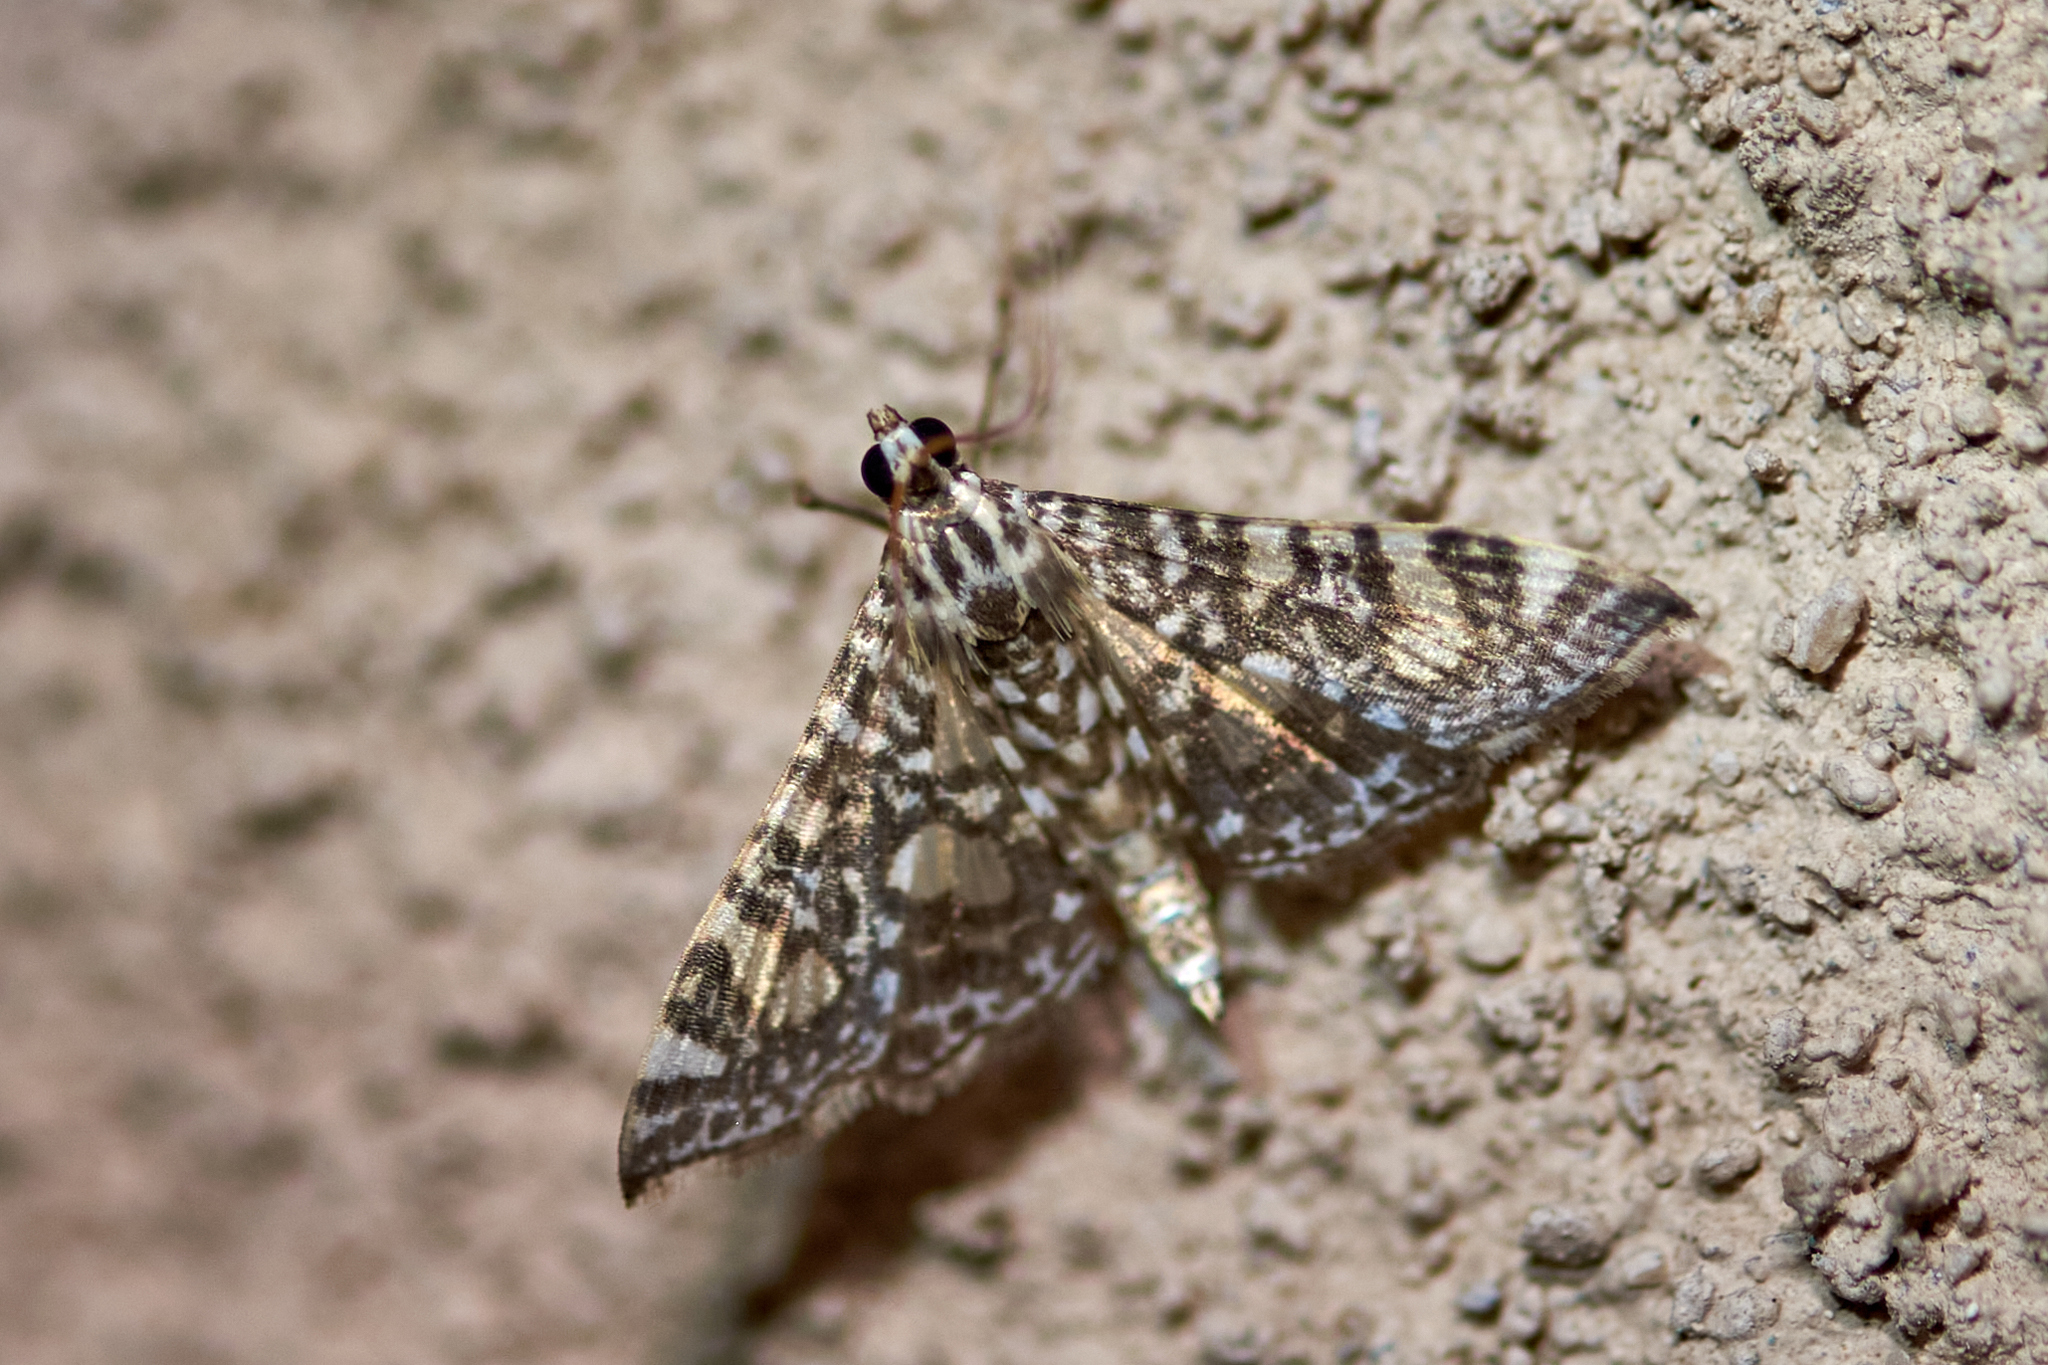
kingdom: Animalia
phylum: Arthropoda
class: Insecta
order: Lepidoptera
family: Crambidae
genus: Glyphodes
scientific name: Glyphodes onychinalis
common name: Swan plant moth
